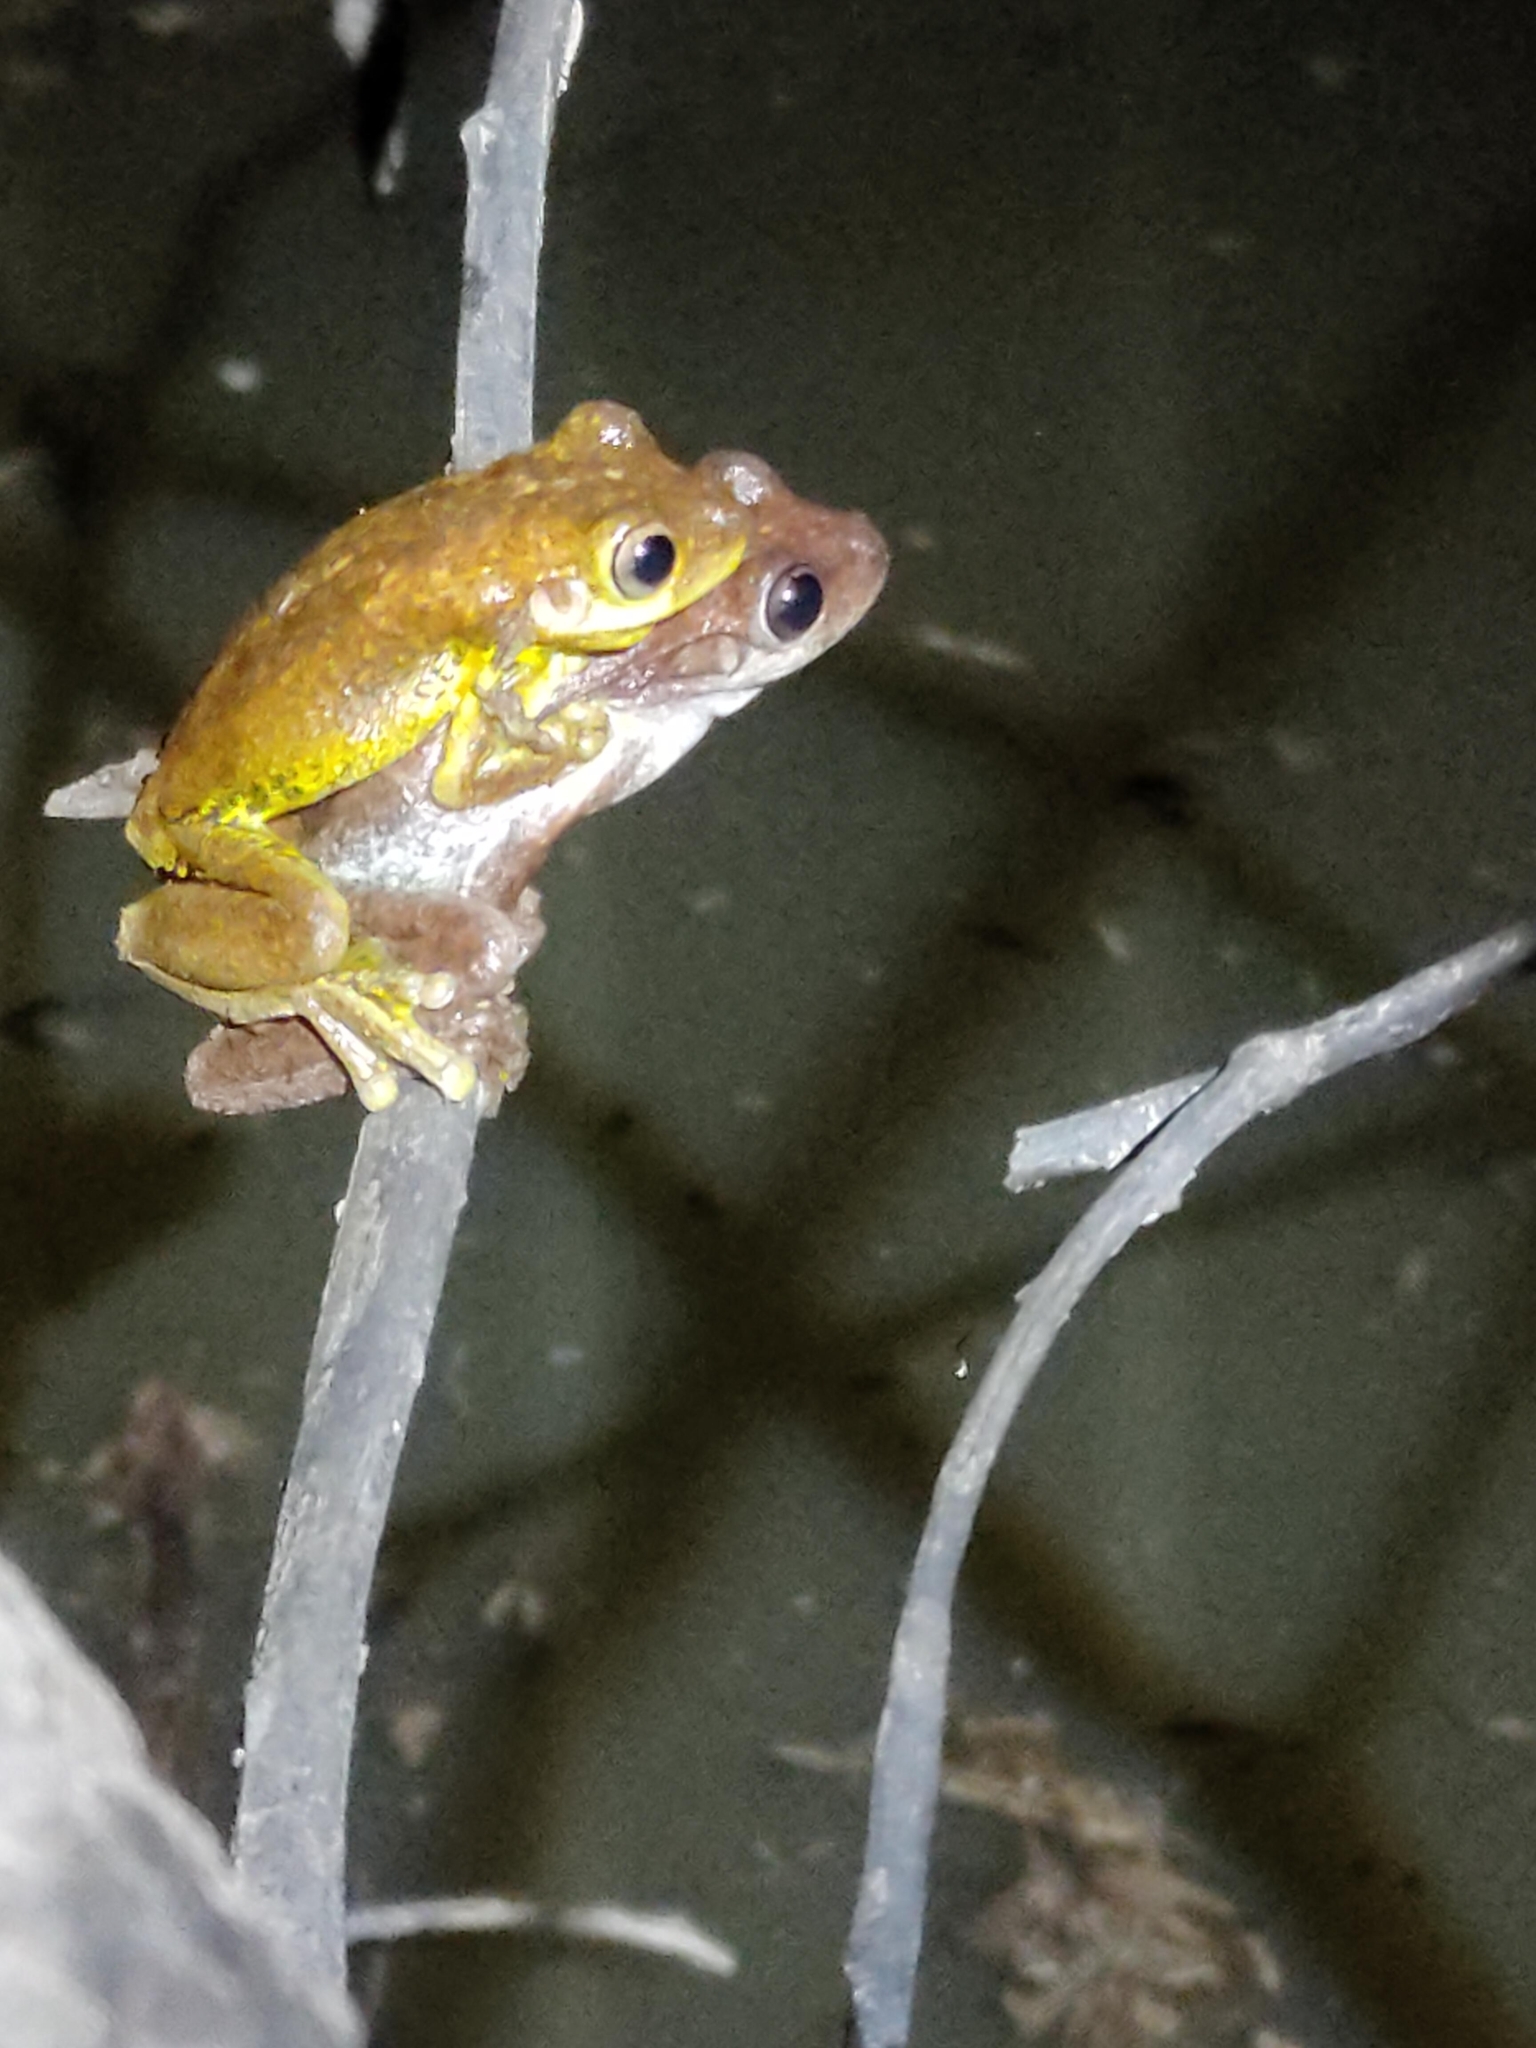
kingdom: Animalia
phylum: Chordata
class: Amphibia
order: Anura
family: Pelodryadidae
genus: Litoria
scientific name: Litoria tyleri
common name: Laughing tree frog
